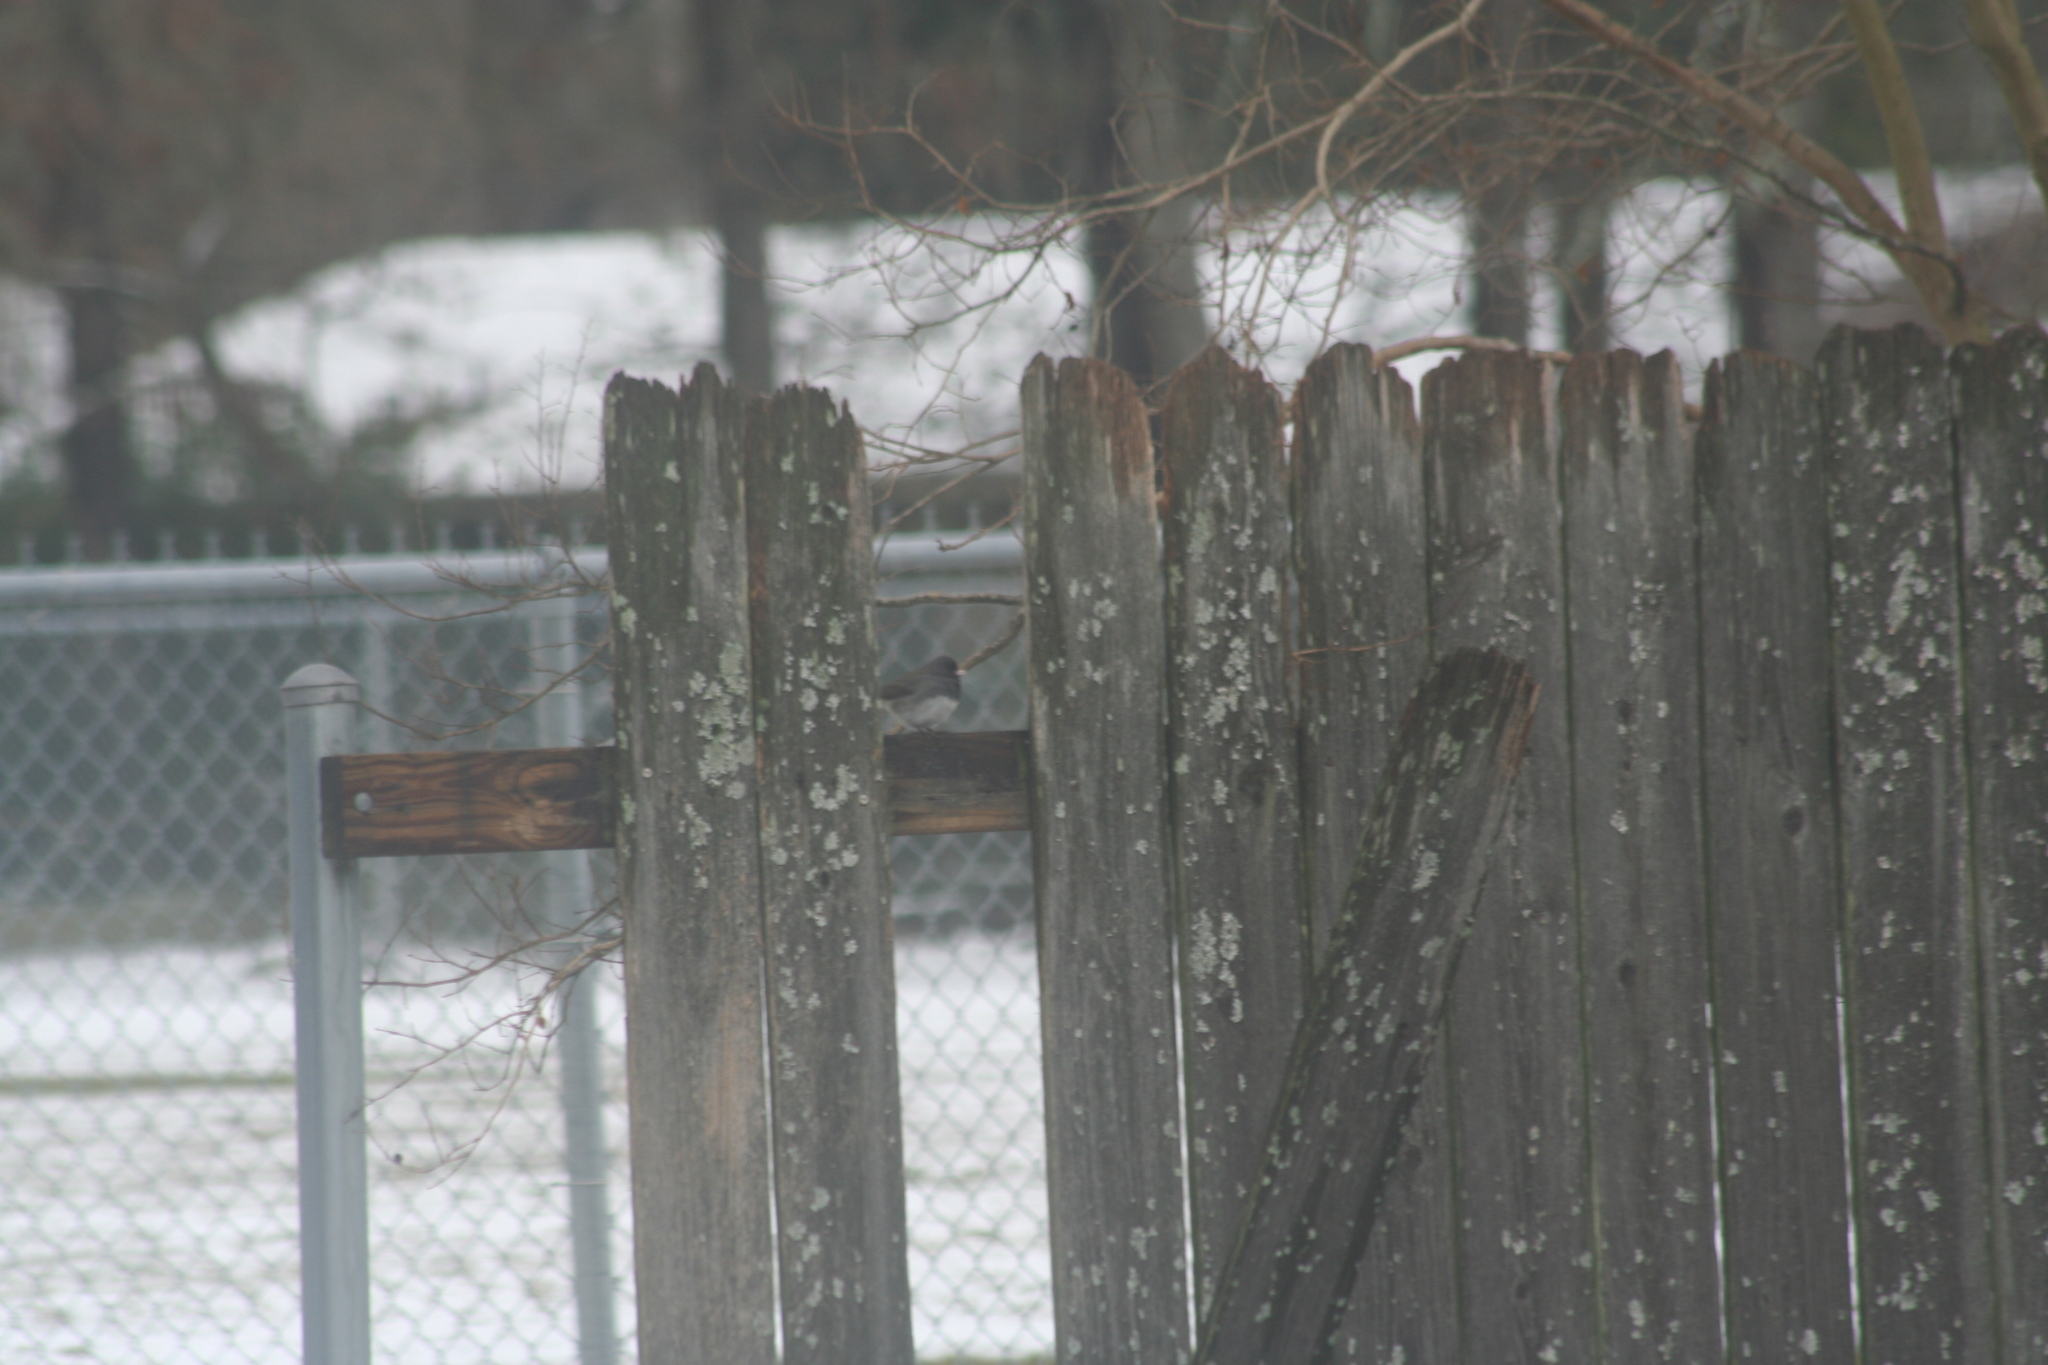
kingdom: Animalia
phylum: Chordata
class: Aves
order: Passeriformes
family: Passerellidae
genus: Junco
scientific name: Junco hyemalis
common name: Dark-eyed junco
